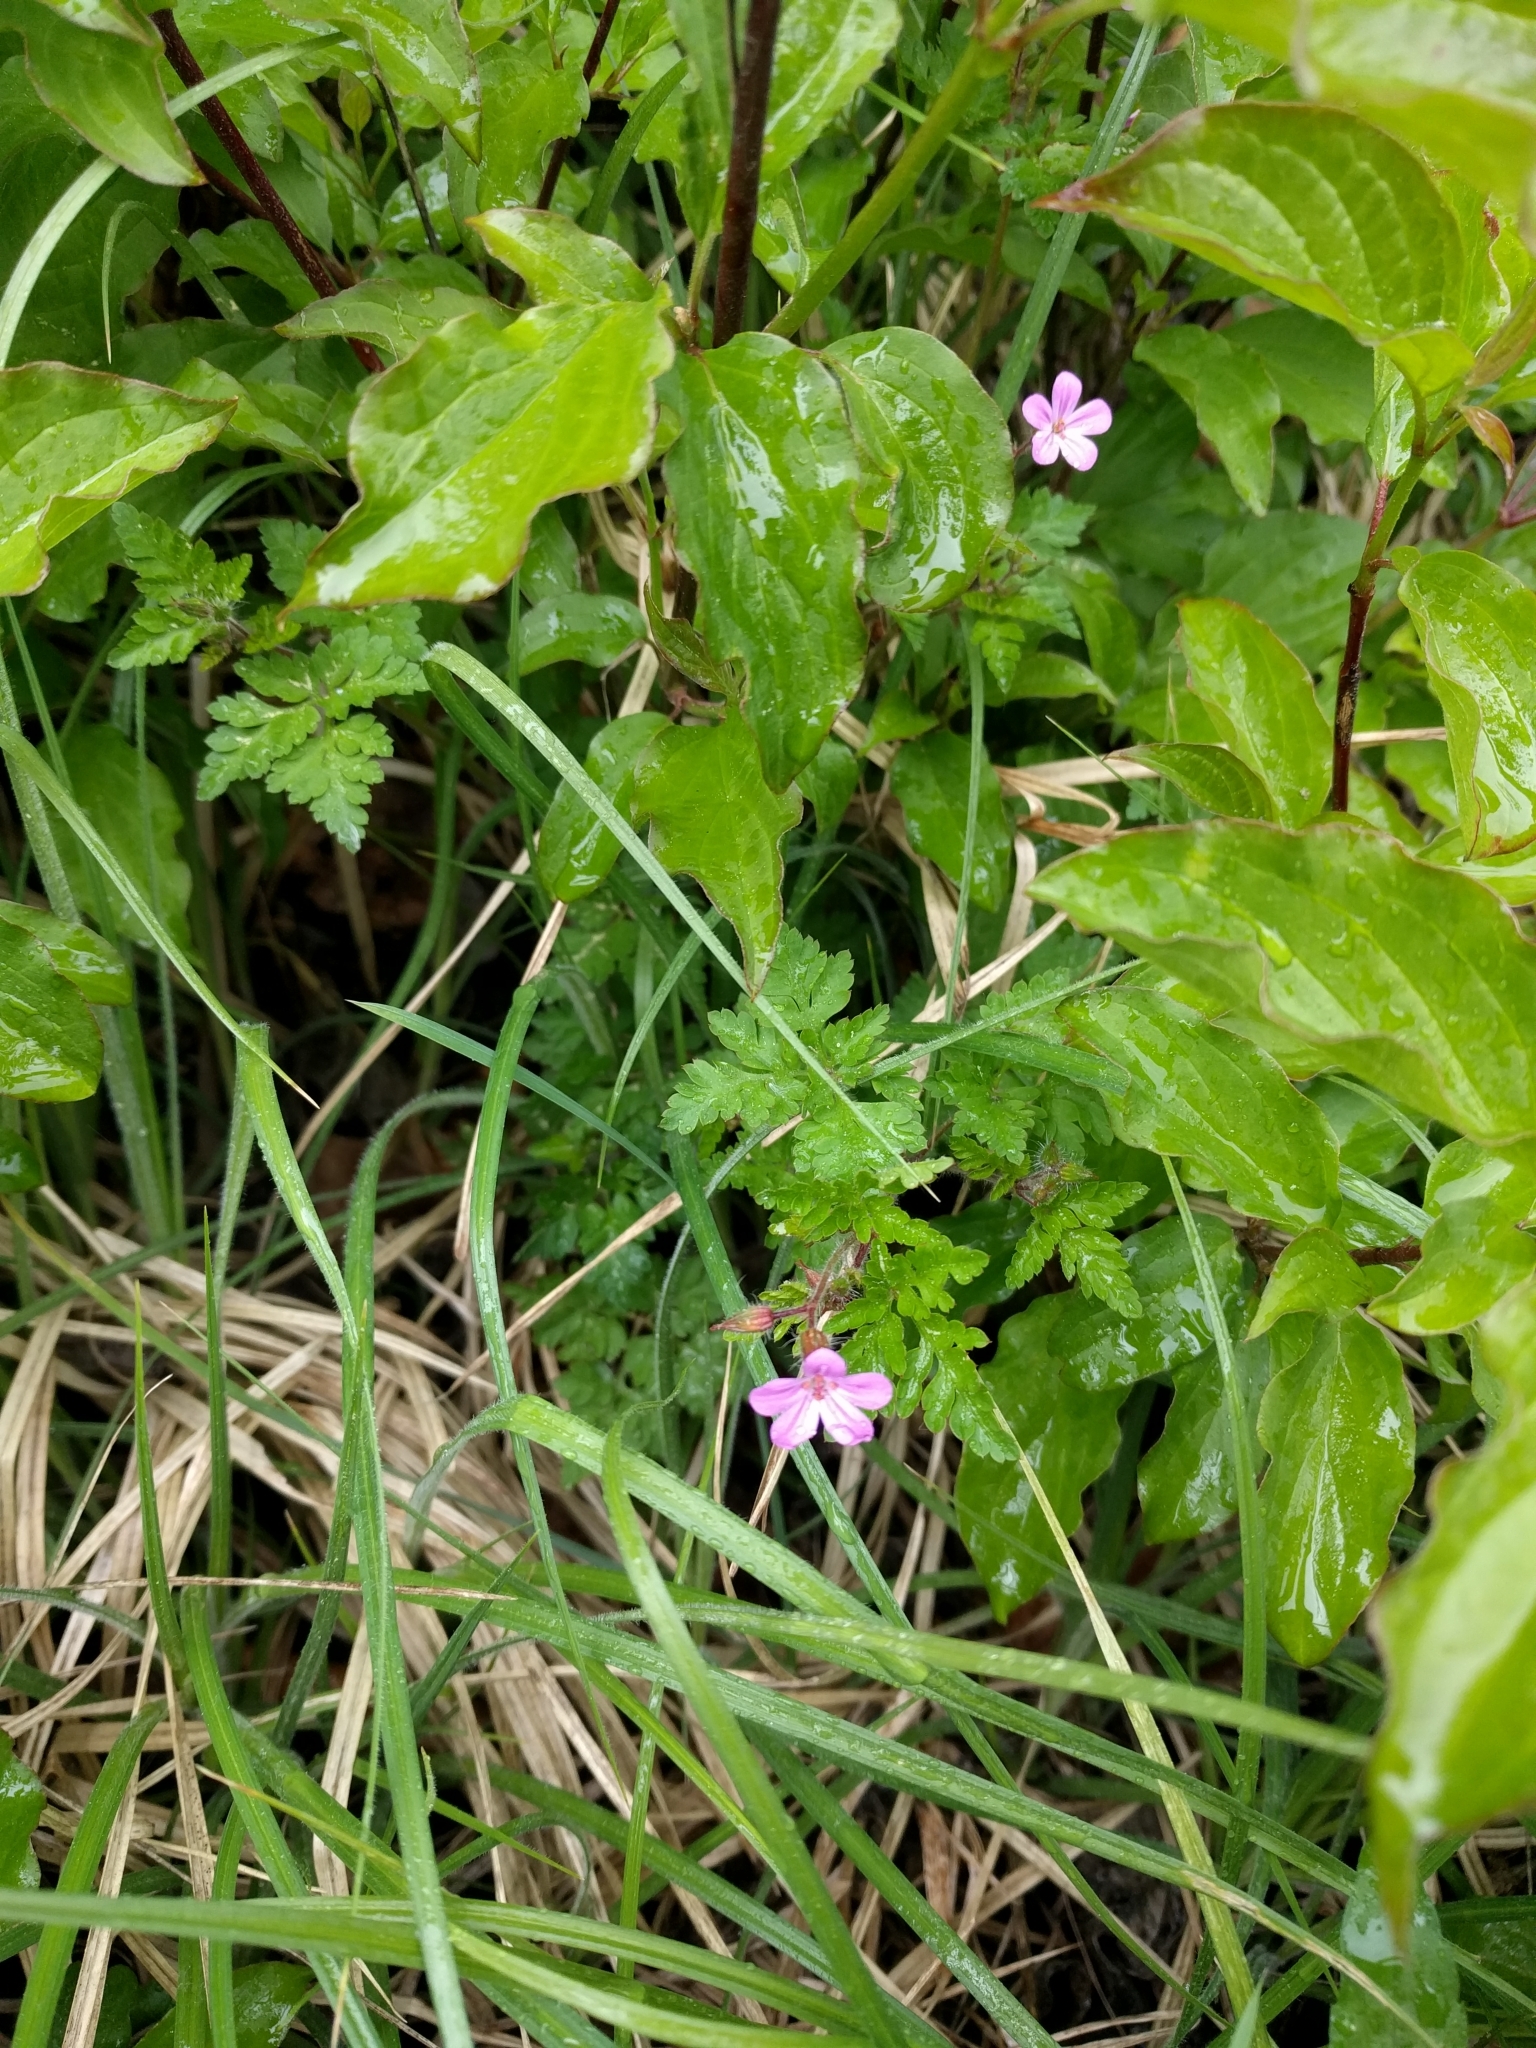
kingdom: Plantae
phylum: Tracheophyta
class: Magnoliopsida
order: Geraniales
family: Geraniaceae
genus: Geranium
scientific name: Geranium robertianum
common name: Herb-robert
